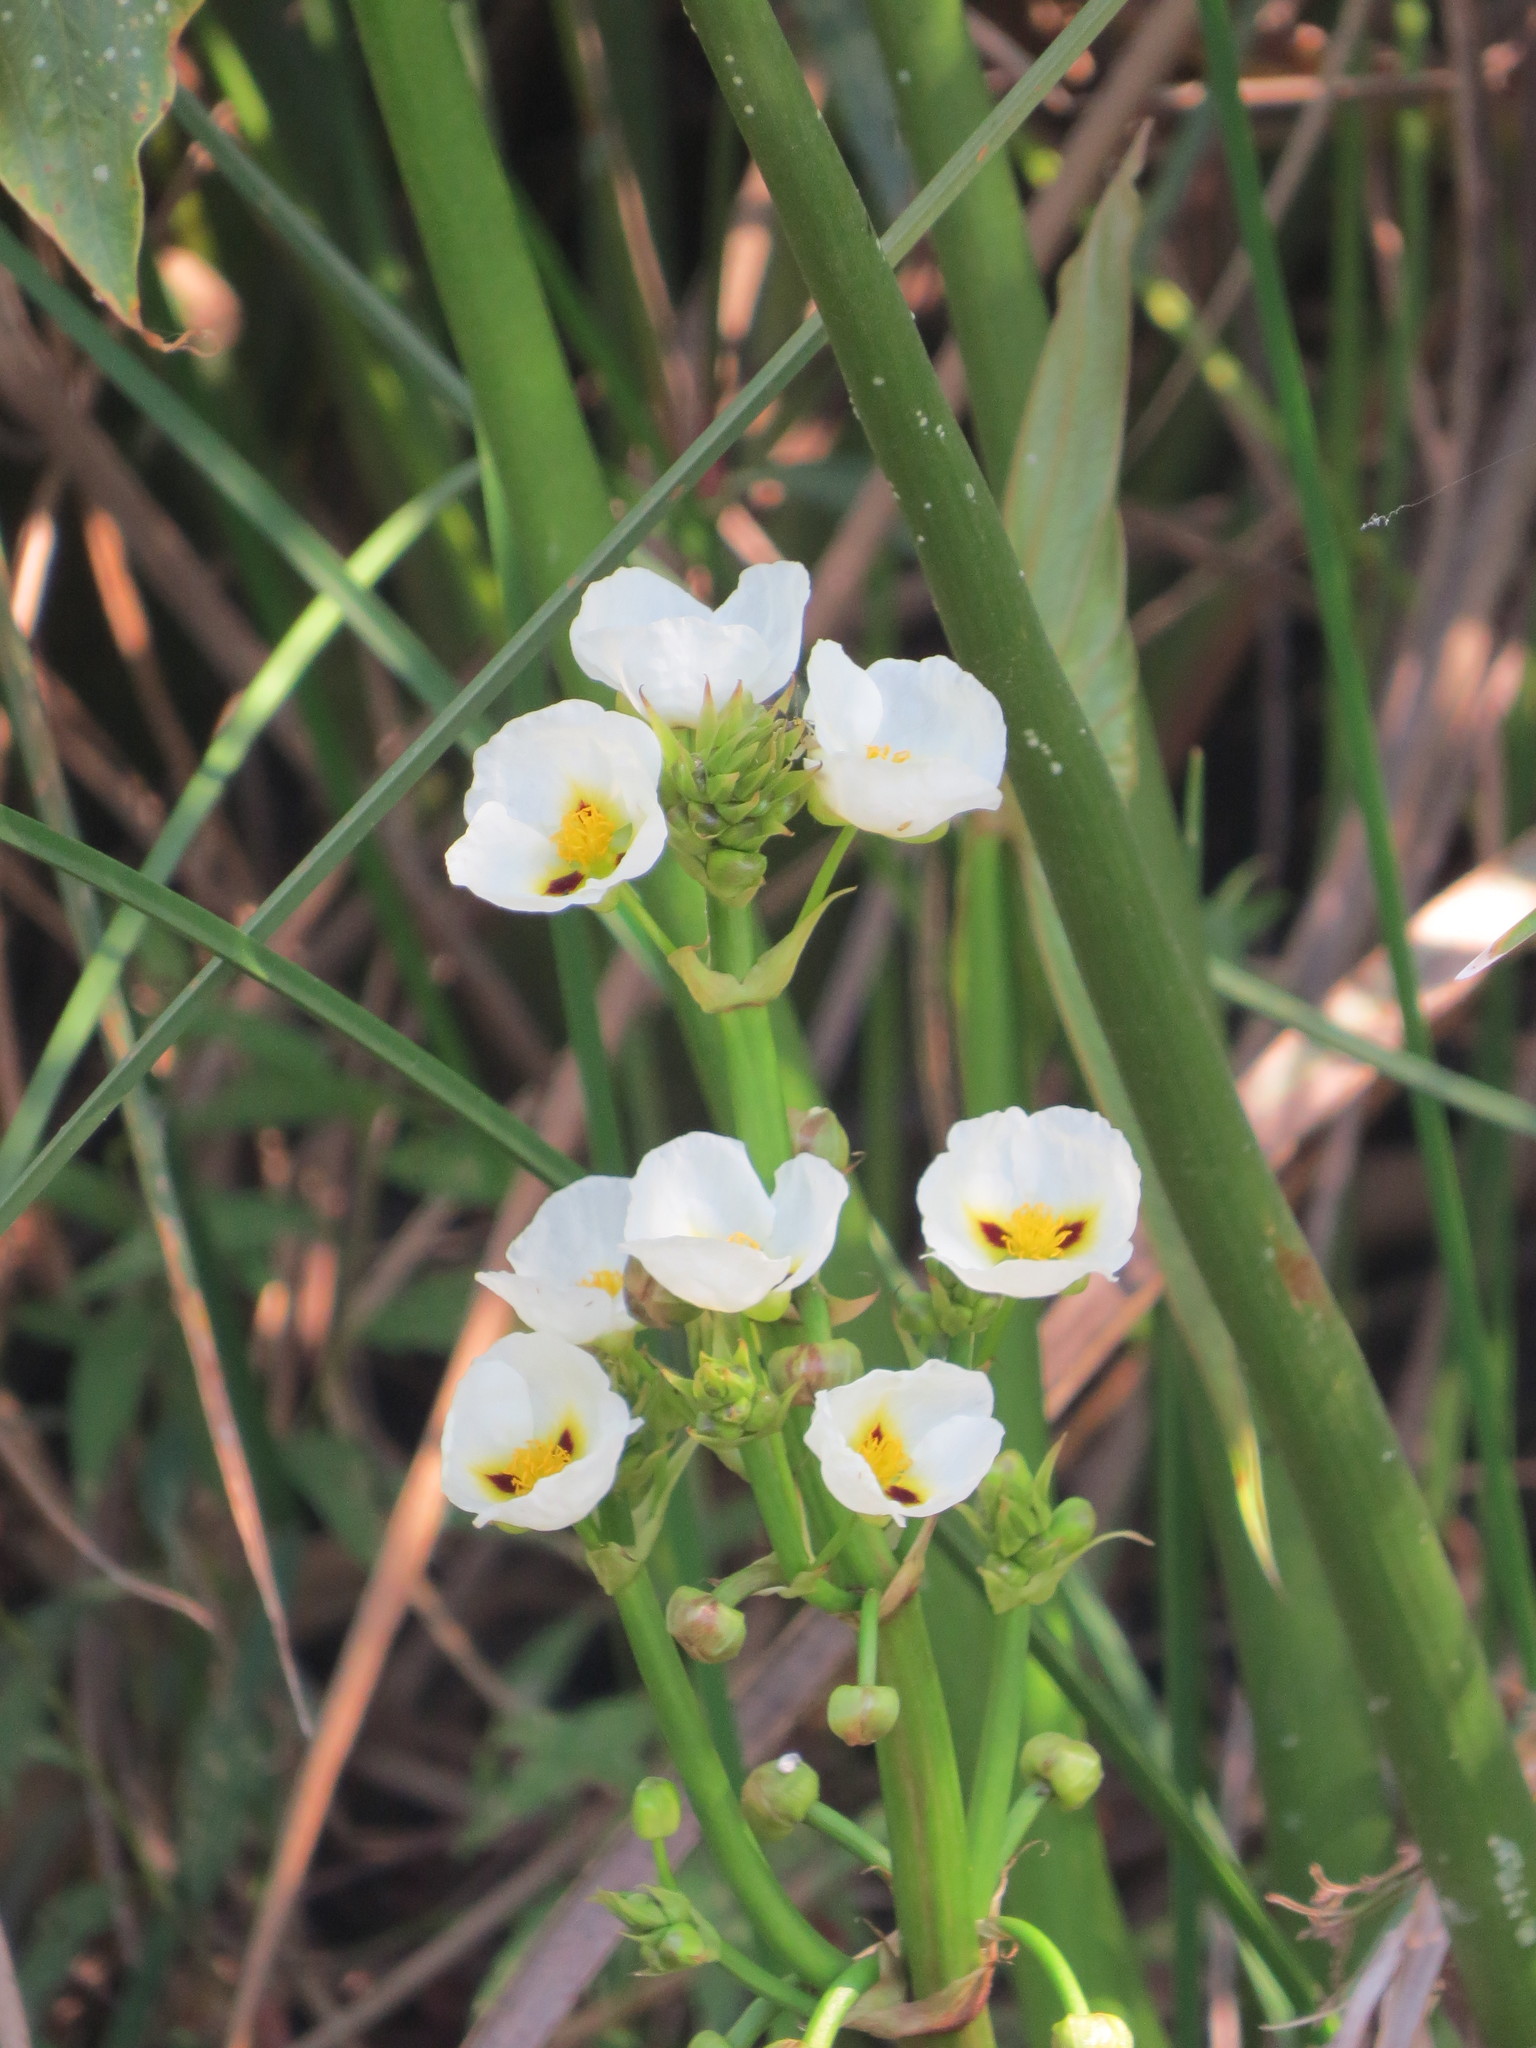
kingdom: Plantae
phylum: Tracheophyta
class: Liliopsida
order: Alismatales
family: Alismataceae
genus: Sagittaria
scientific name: Sagittaria montevidensis
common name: Giant arrowhead
